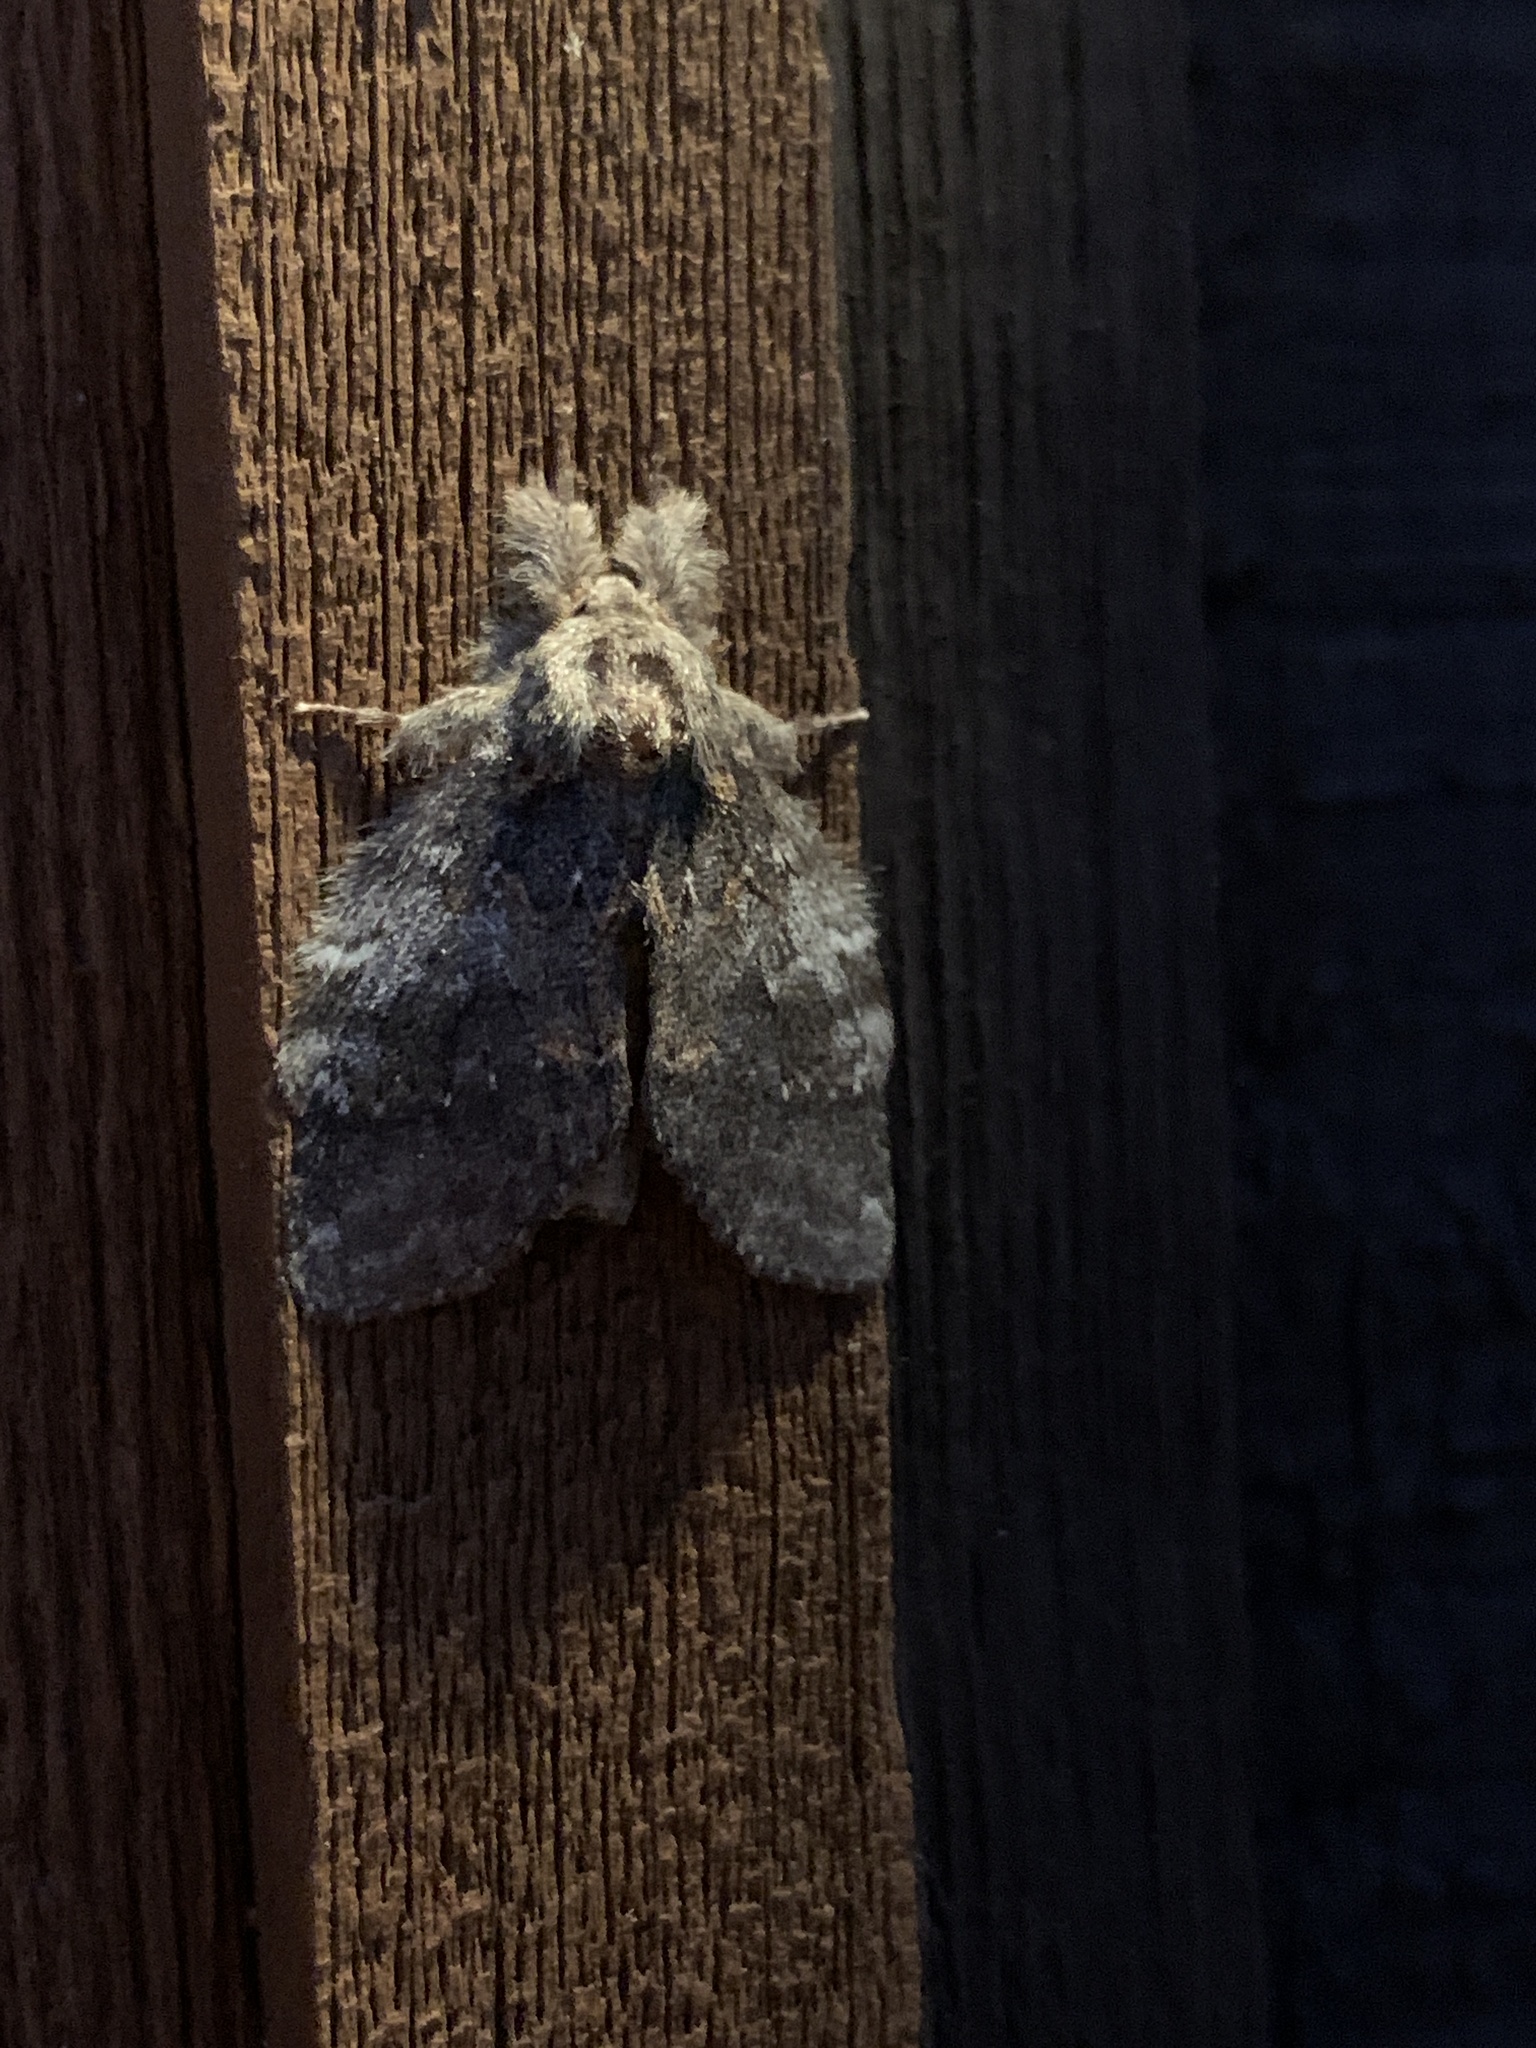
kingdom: Animalia
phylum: Arthropoda
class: Insecta
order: Lepidoptera
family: Notodontidae
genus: Peridea
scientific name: Peridea angulosa
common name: Angulose prominent
